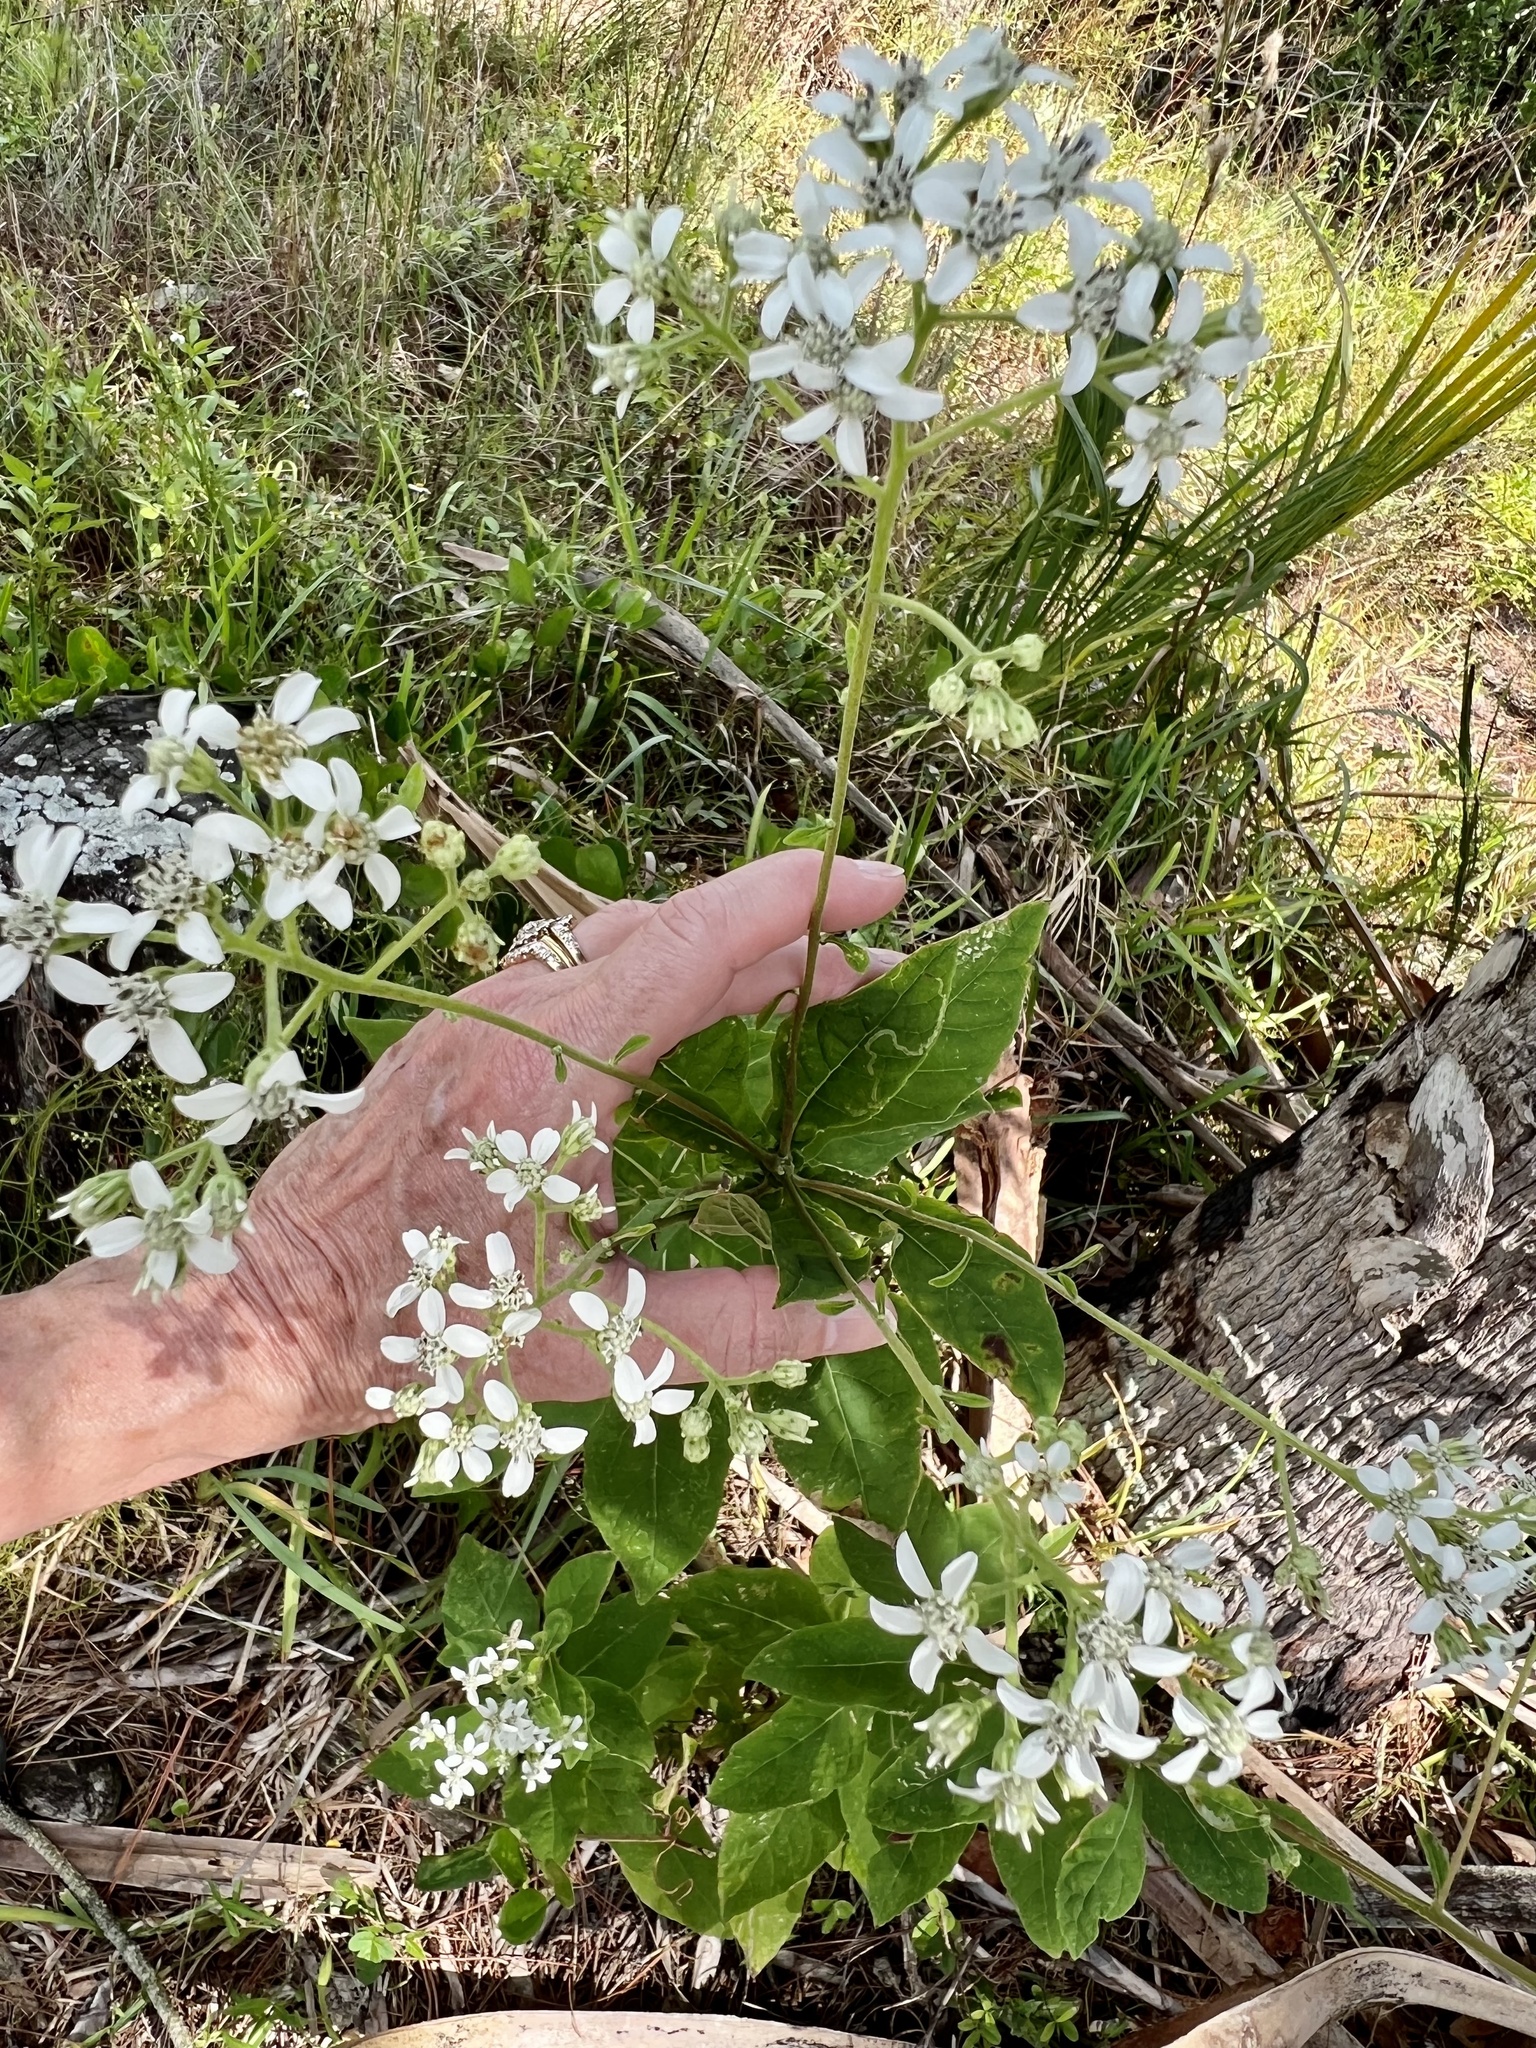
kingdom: Plantae
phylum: Tracheophyta
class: Magnoliopsida
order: Asterales
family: Asteraceae
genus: Verbesina
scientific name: Verbesina virginica
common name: Frostweed
